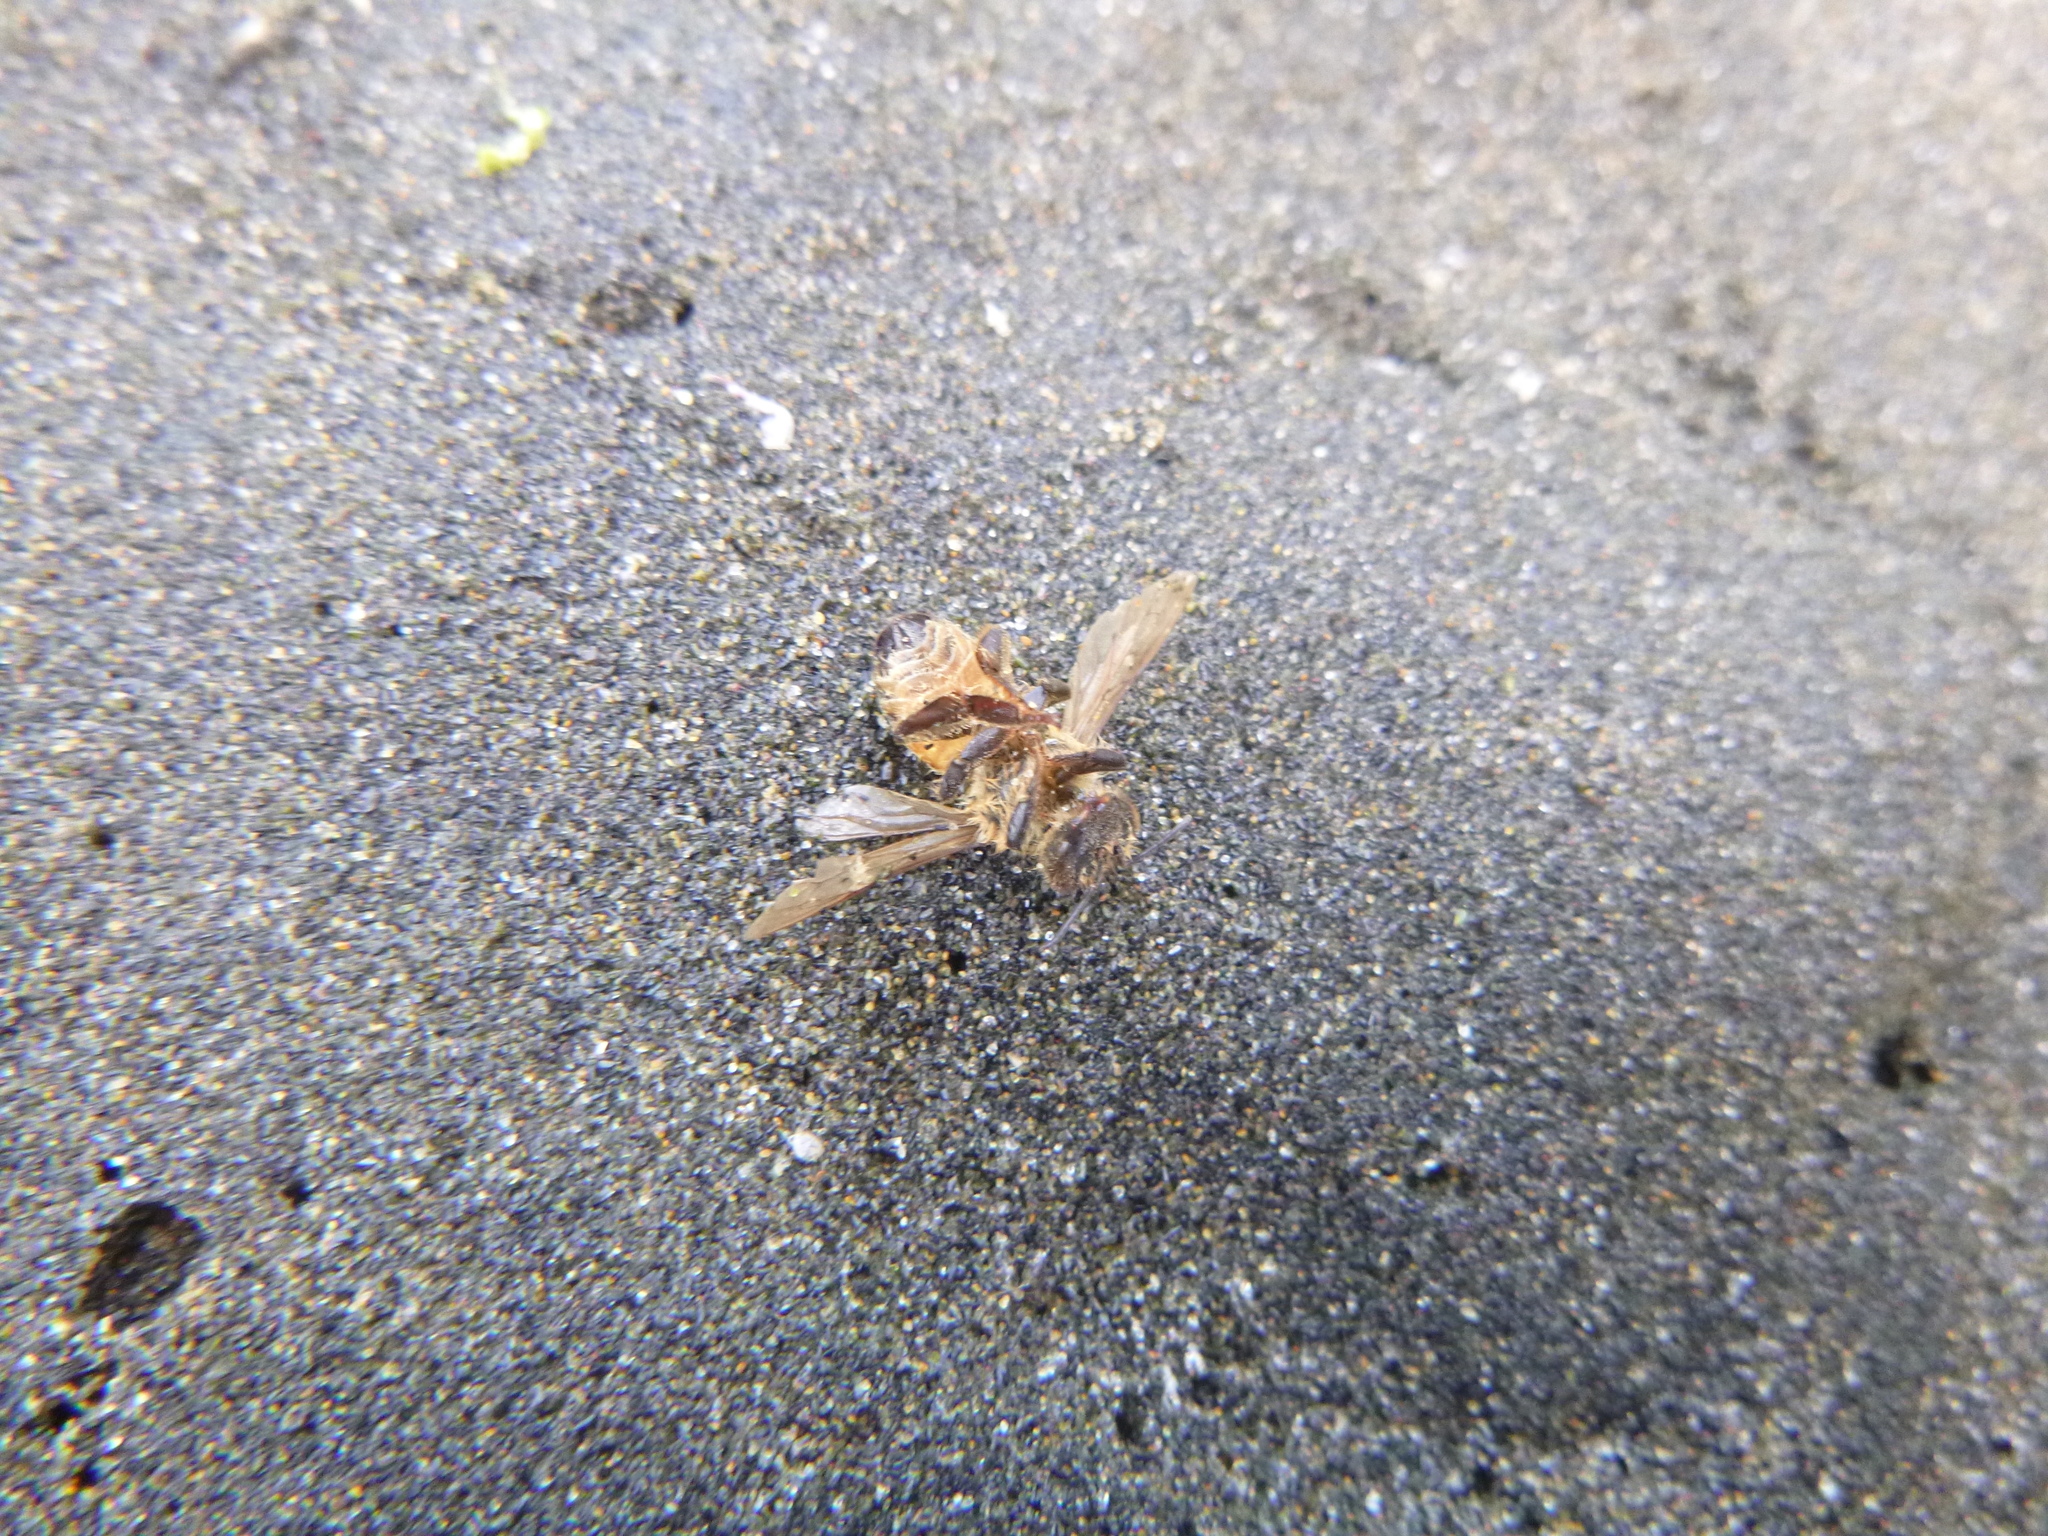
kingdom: Animalia
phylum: Arthropoda
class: Insecta
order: Hymenoptera
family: Apidae
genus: Apis
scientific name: Apis mellifera
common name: Honey bee
